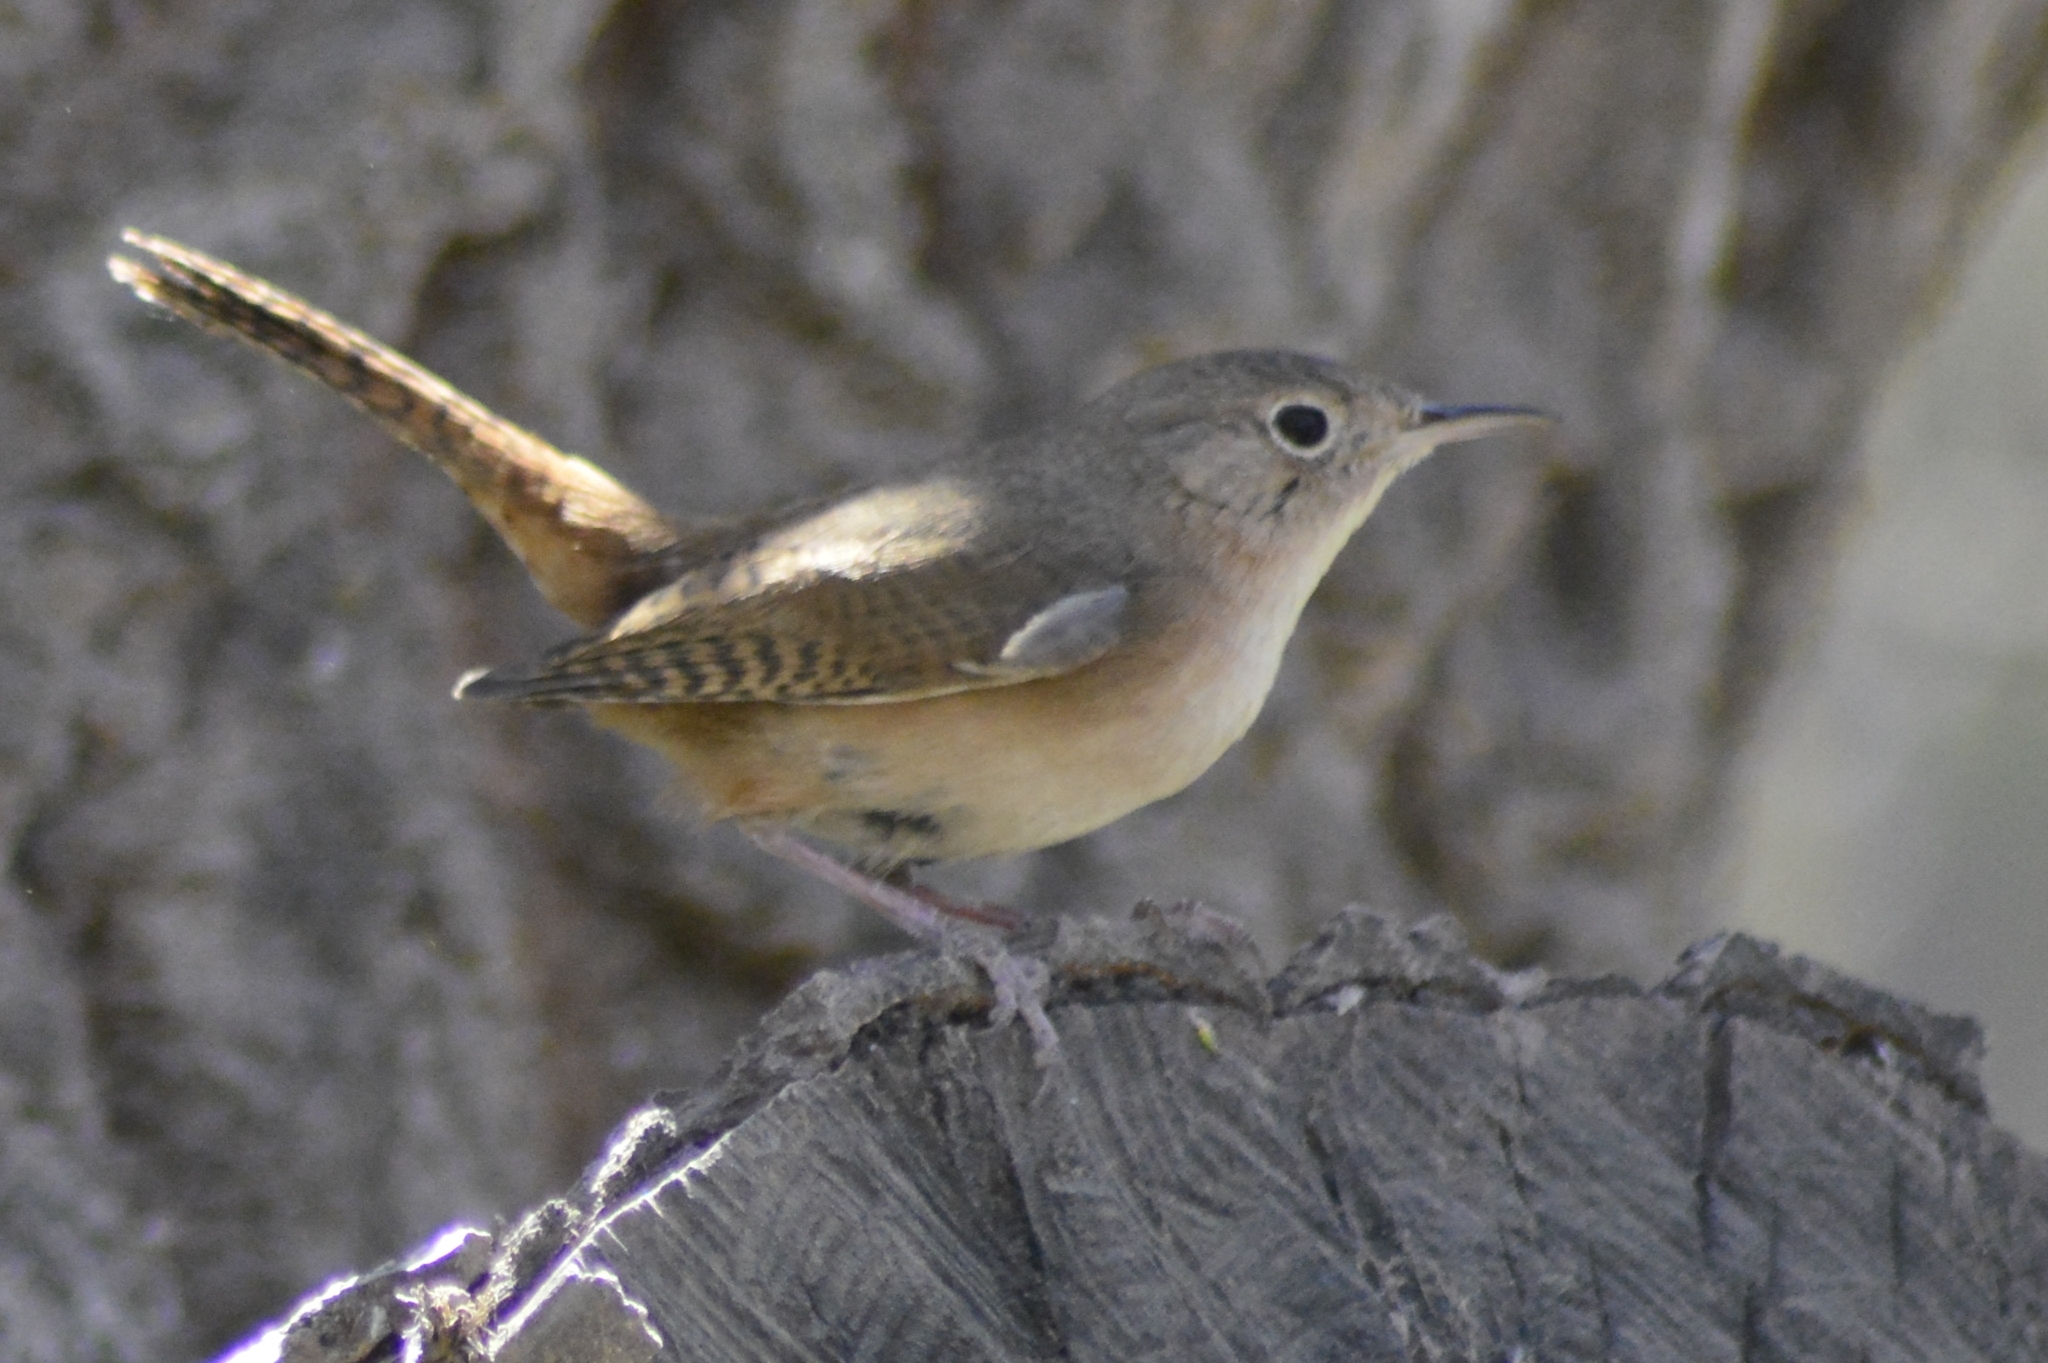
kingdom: Animalia
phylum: Chordata
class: Aves
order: Passeriformes
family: Troglodytidae
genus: Troglodytes
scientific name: Troglodytes aedon
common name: House wren
